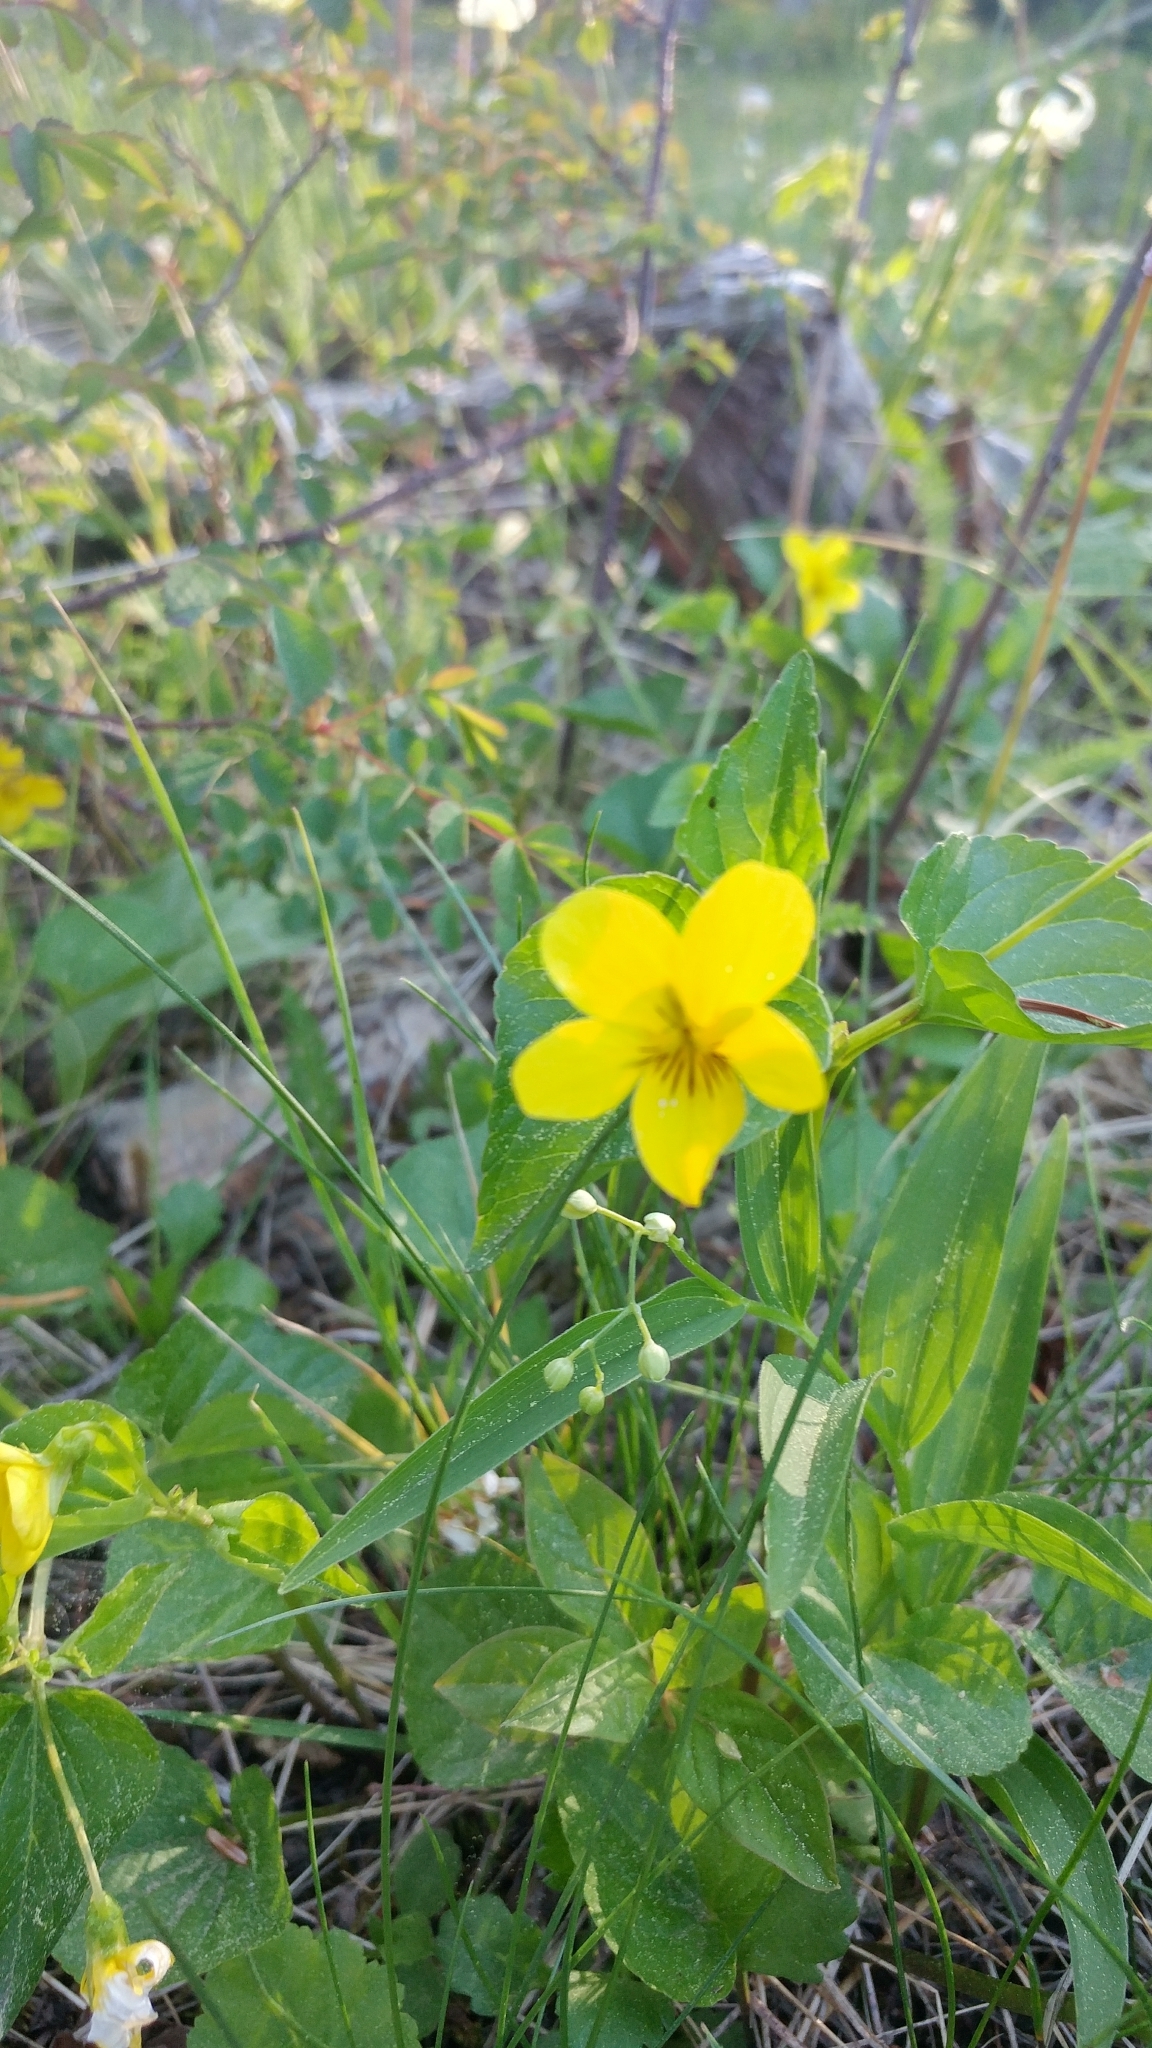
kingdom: Plantae
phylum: Tracheophyta
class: Magnoliopsida
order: Malpighiales
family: Violaceae
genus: Viola
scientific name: Viola glabella
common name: Stream violet
